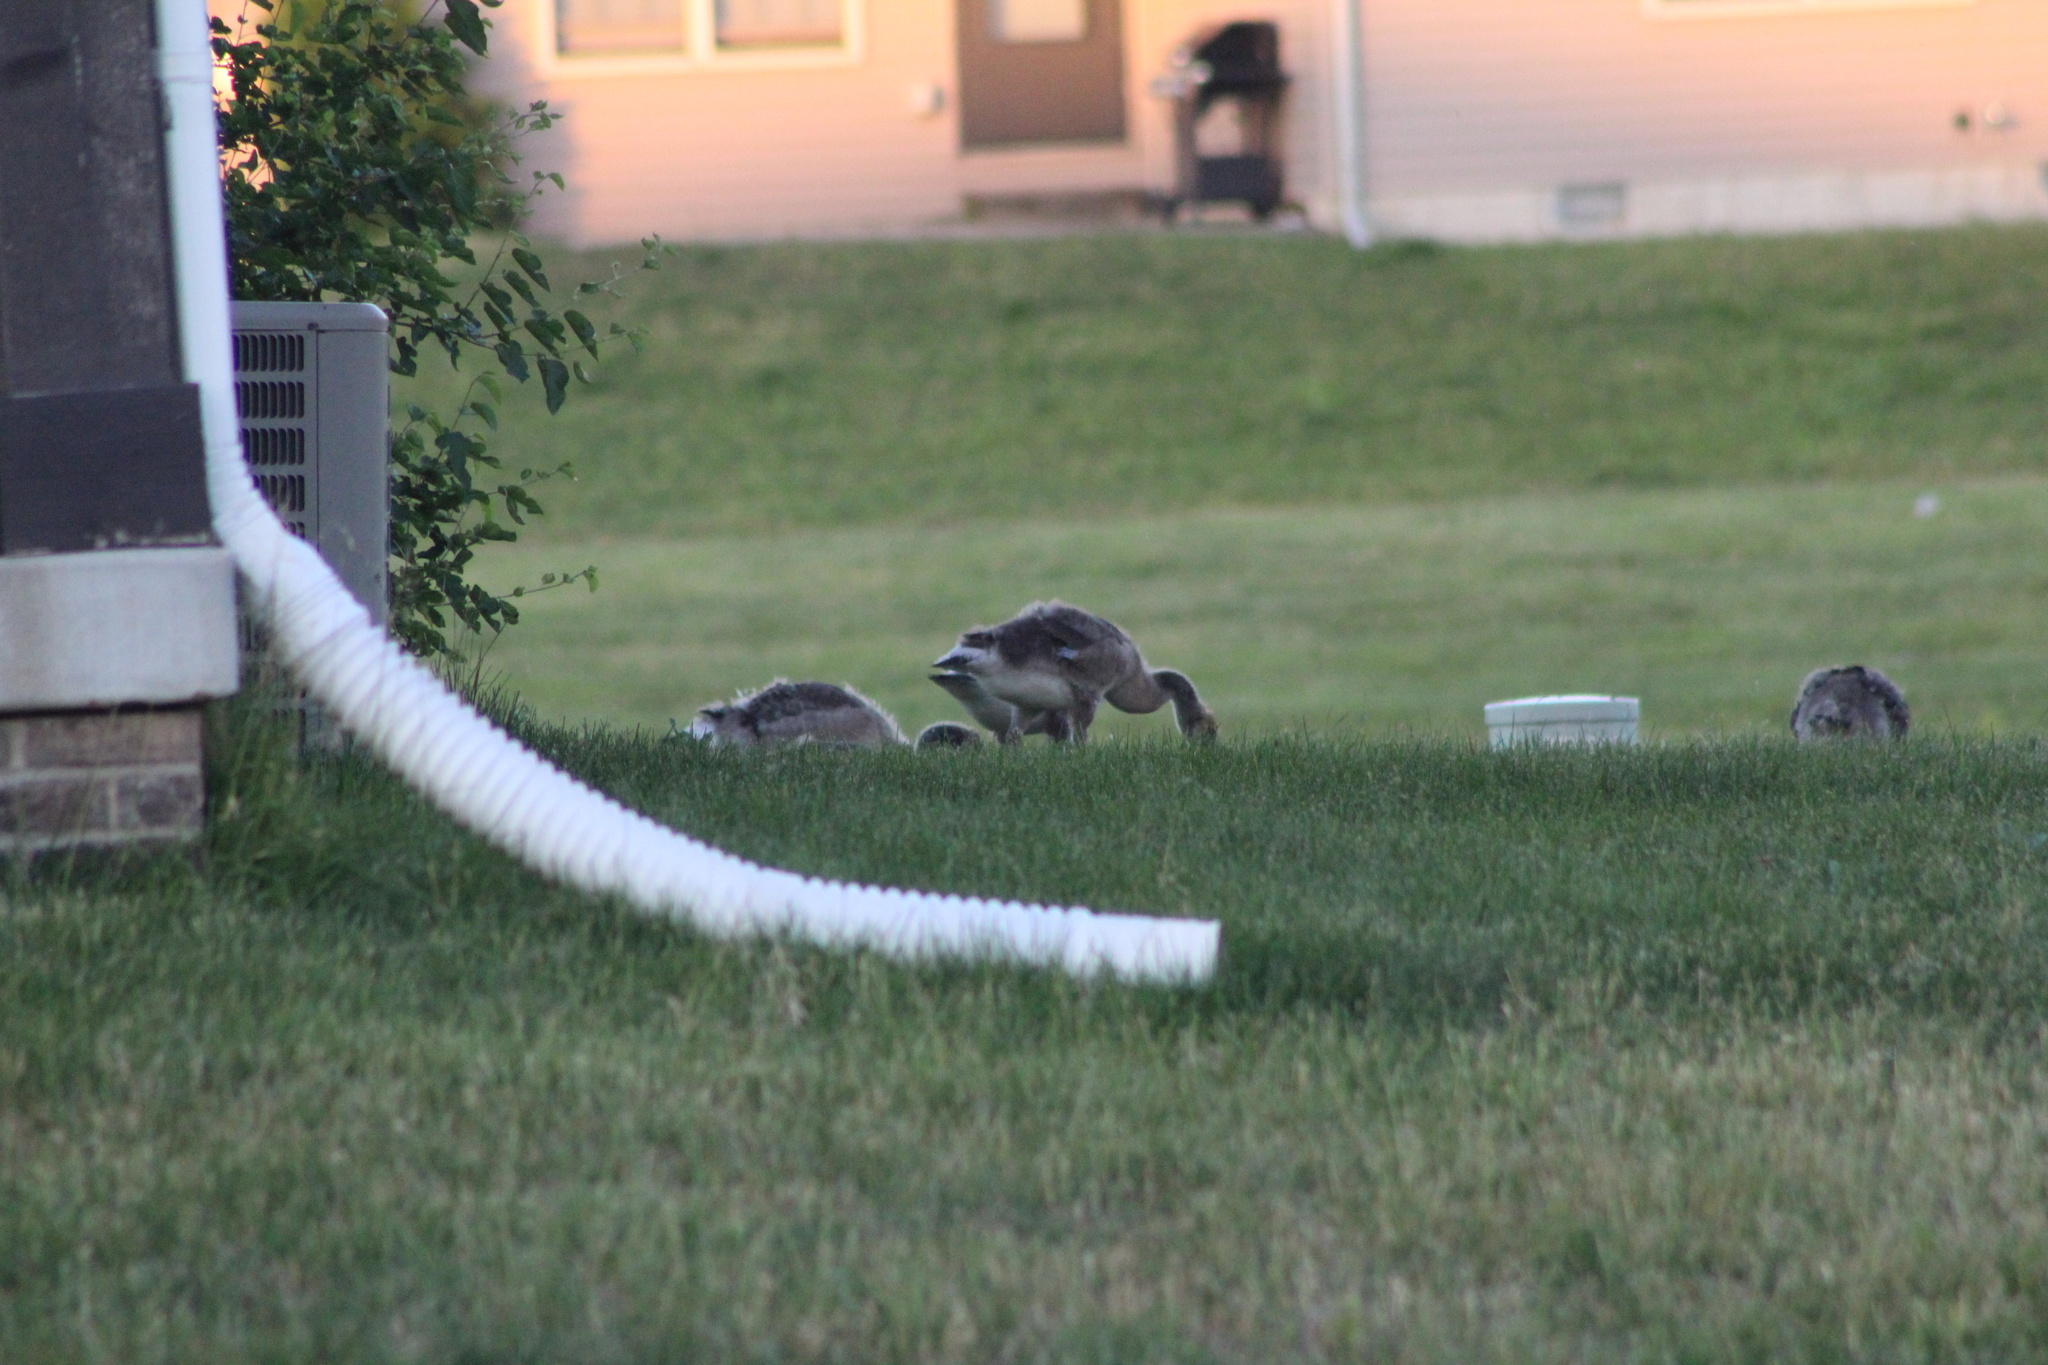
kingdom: Animalia
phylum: Chordata
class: Aves
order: Anseriformes
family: Anatidae
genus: Branta
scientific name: Branta canadensis
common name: Canada goose
